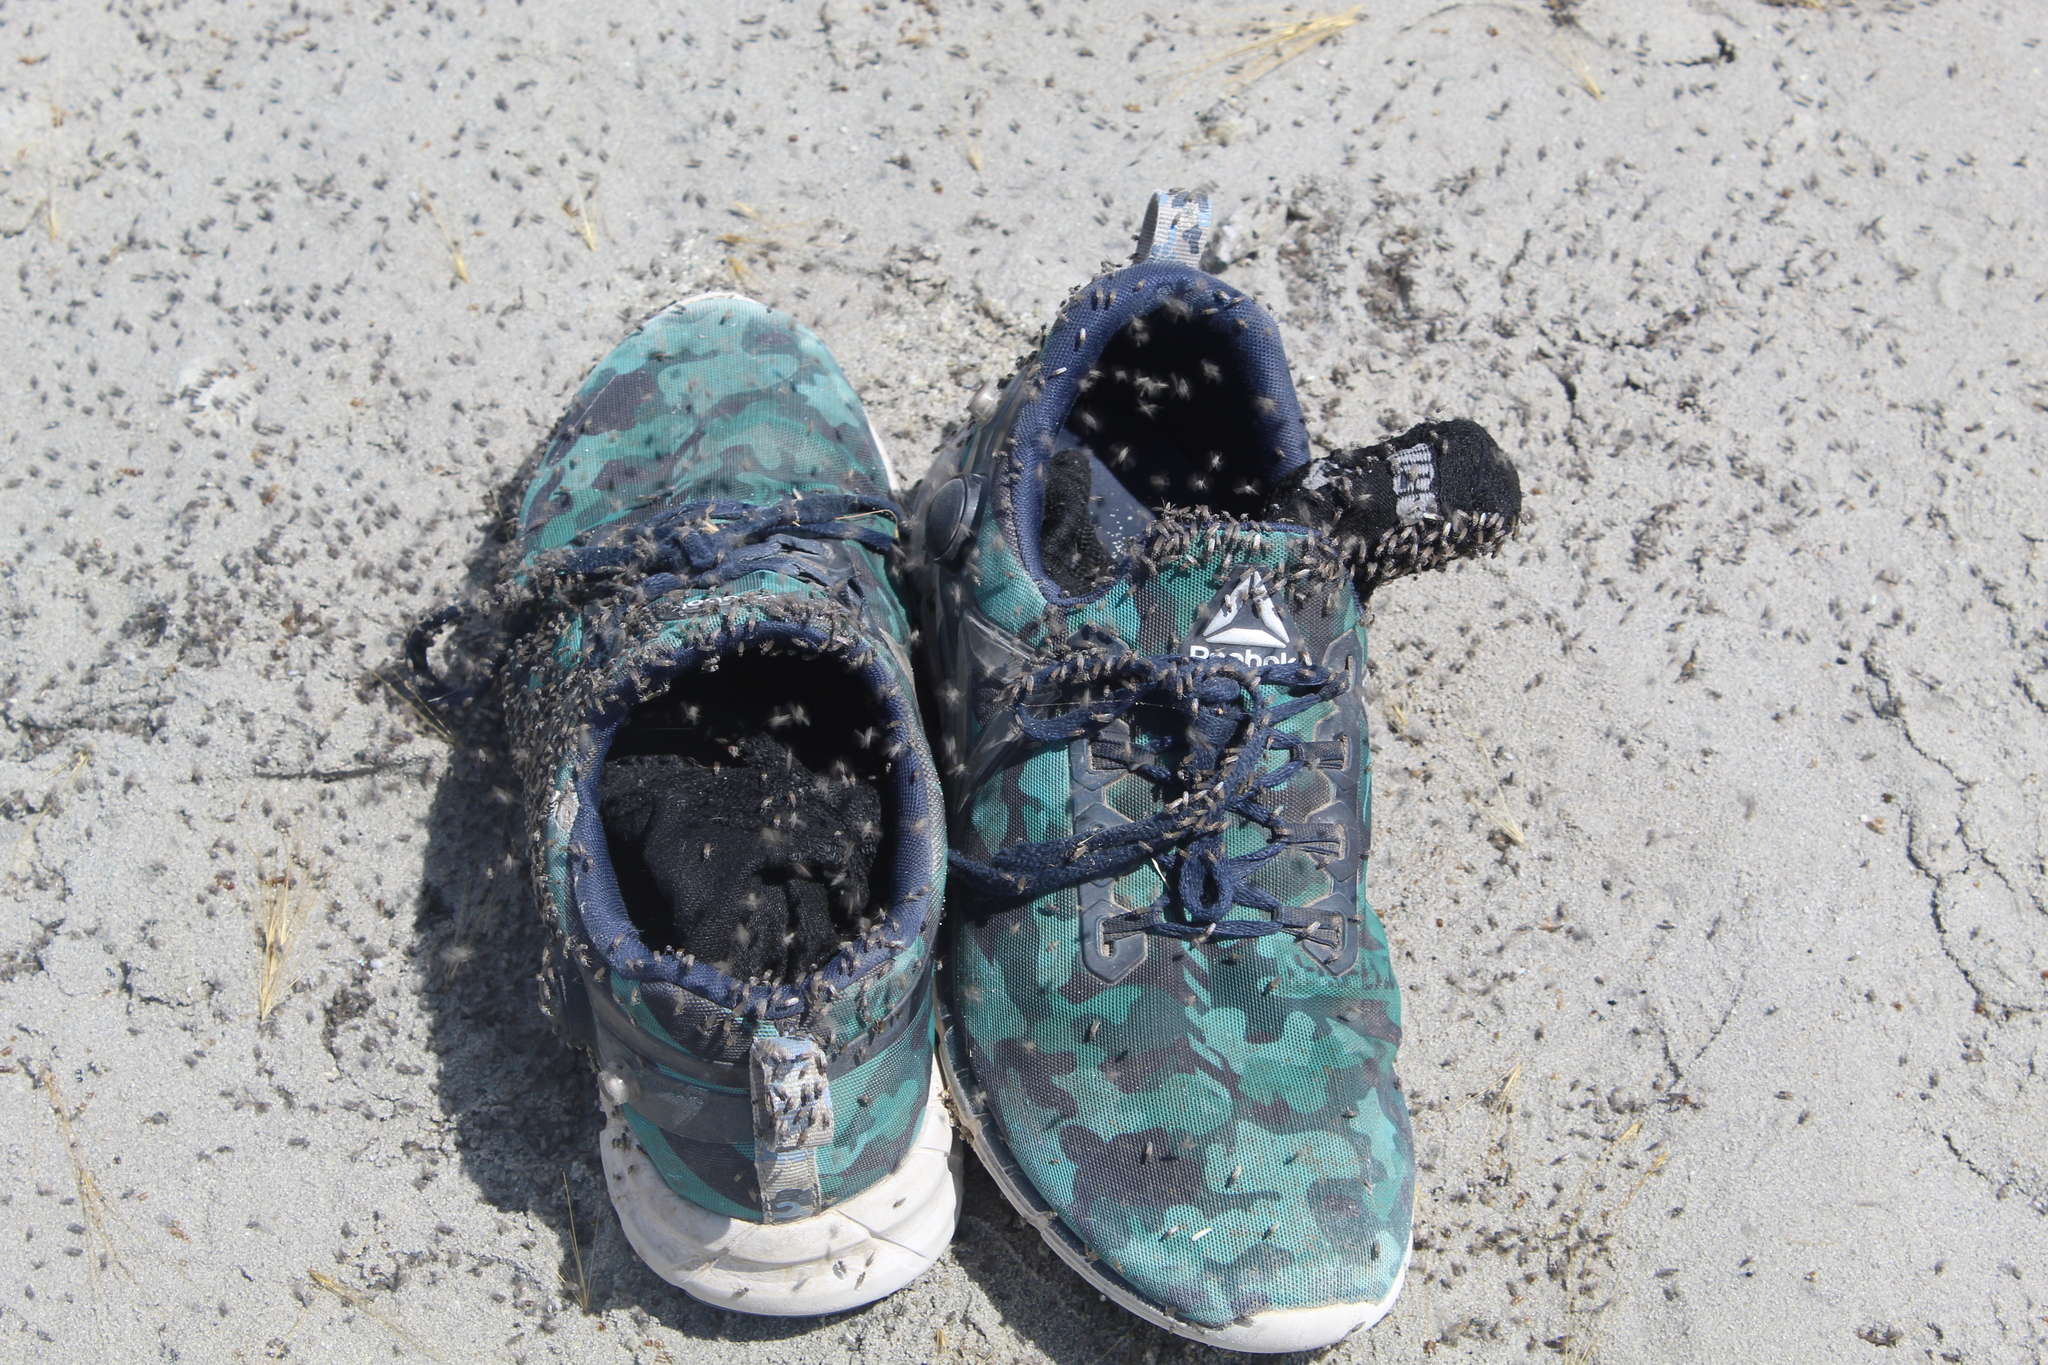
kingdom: Animalia
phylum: Arthropoda
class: Insecta
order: Diptera
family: Ephydridae
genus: Ephydra
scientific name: Ephydra gracilis
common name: Shore fly
